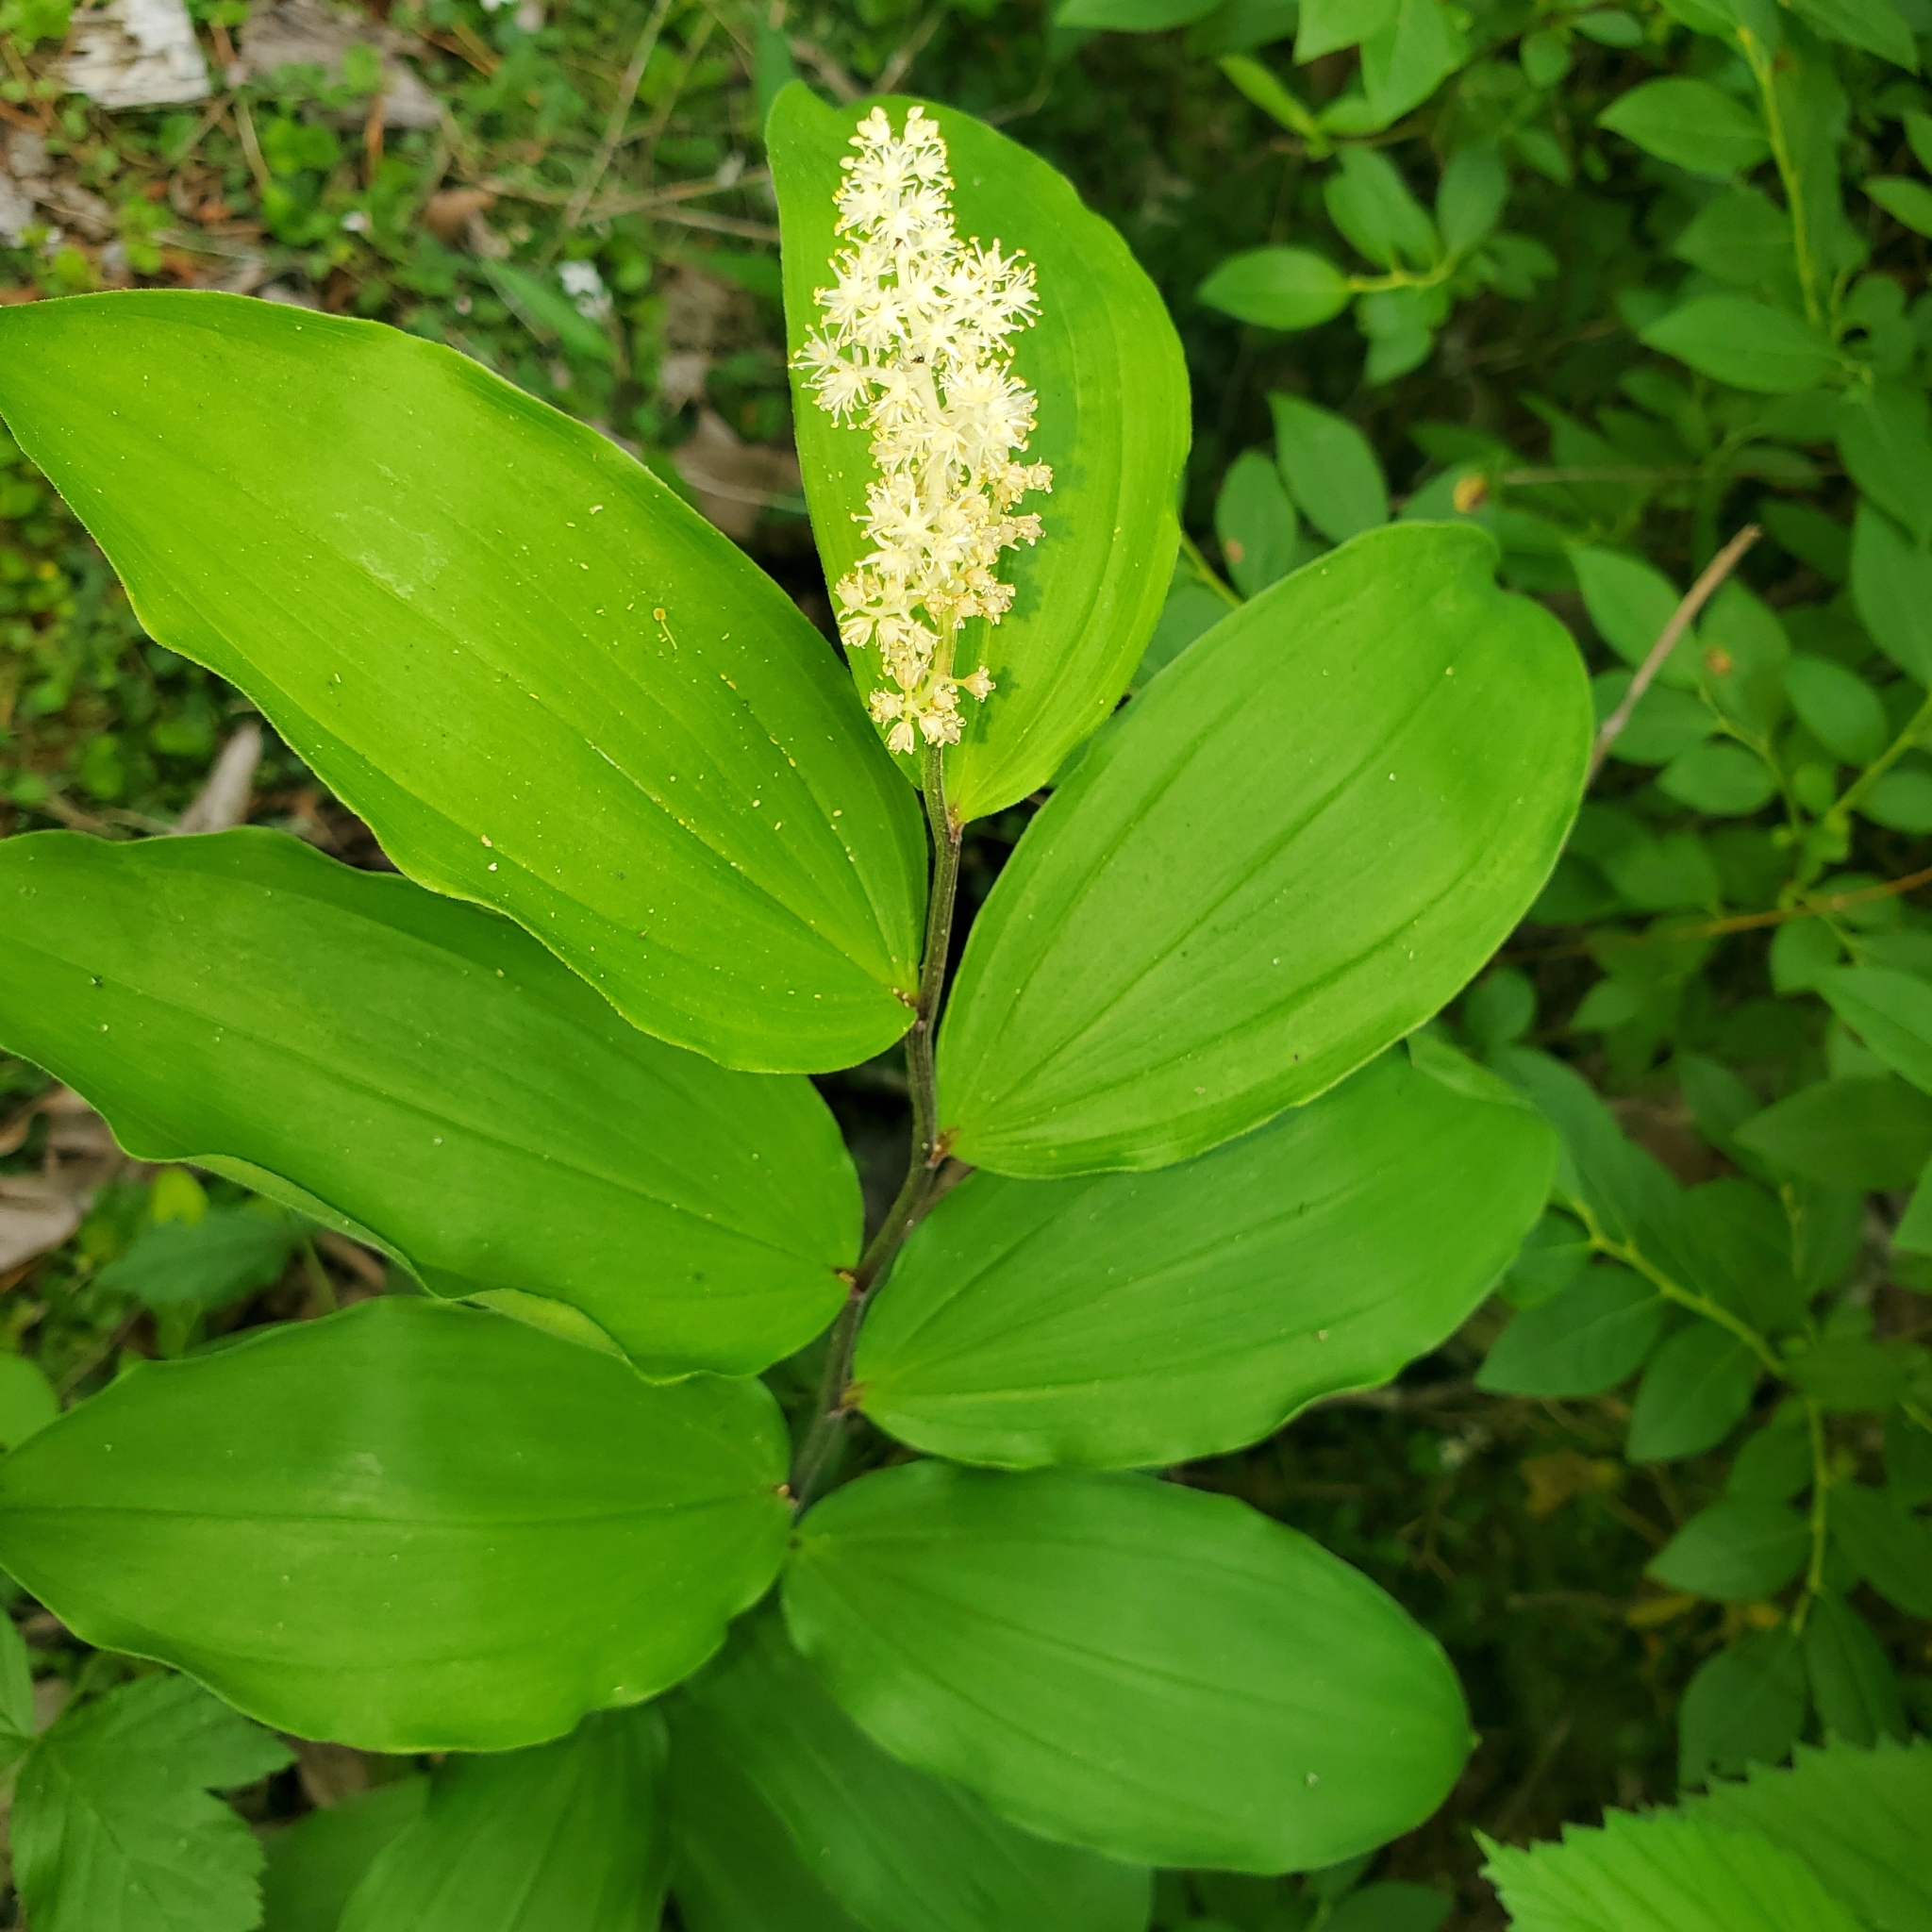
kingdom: Plantae
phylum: Tracheophyta
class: Liliopsida
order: Asparagales
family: Asparagaceae
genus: Maianthemum
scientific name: Maianthemum racemosum
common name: False spikenard
